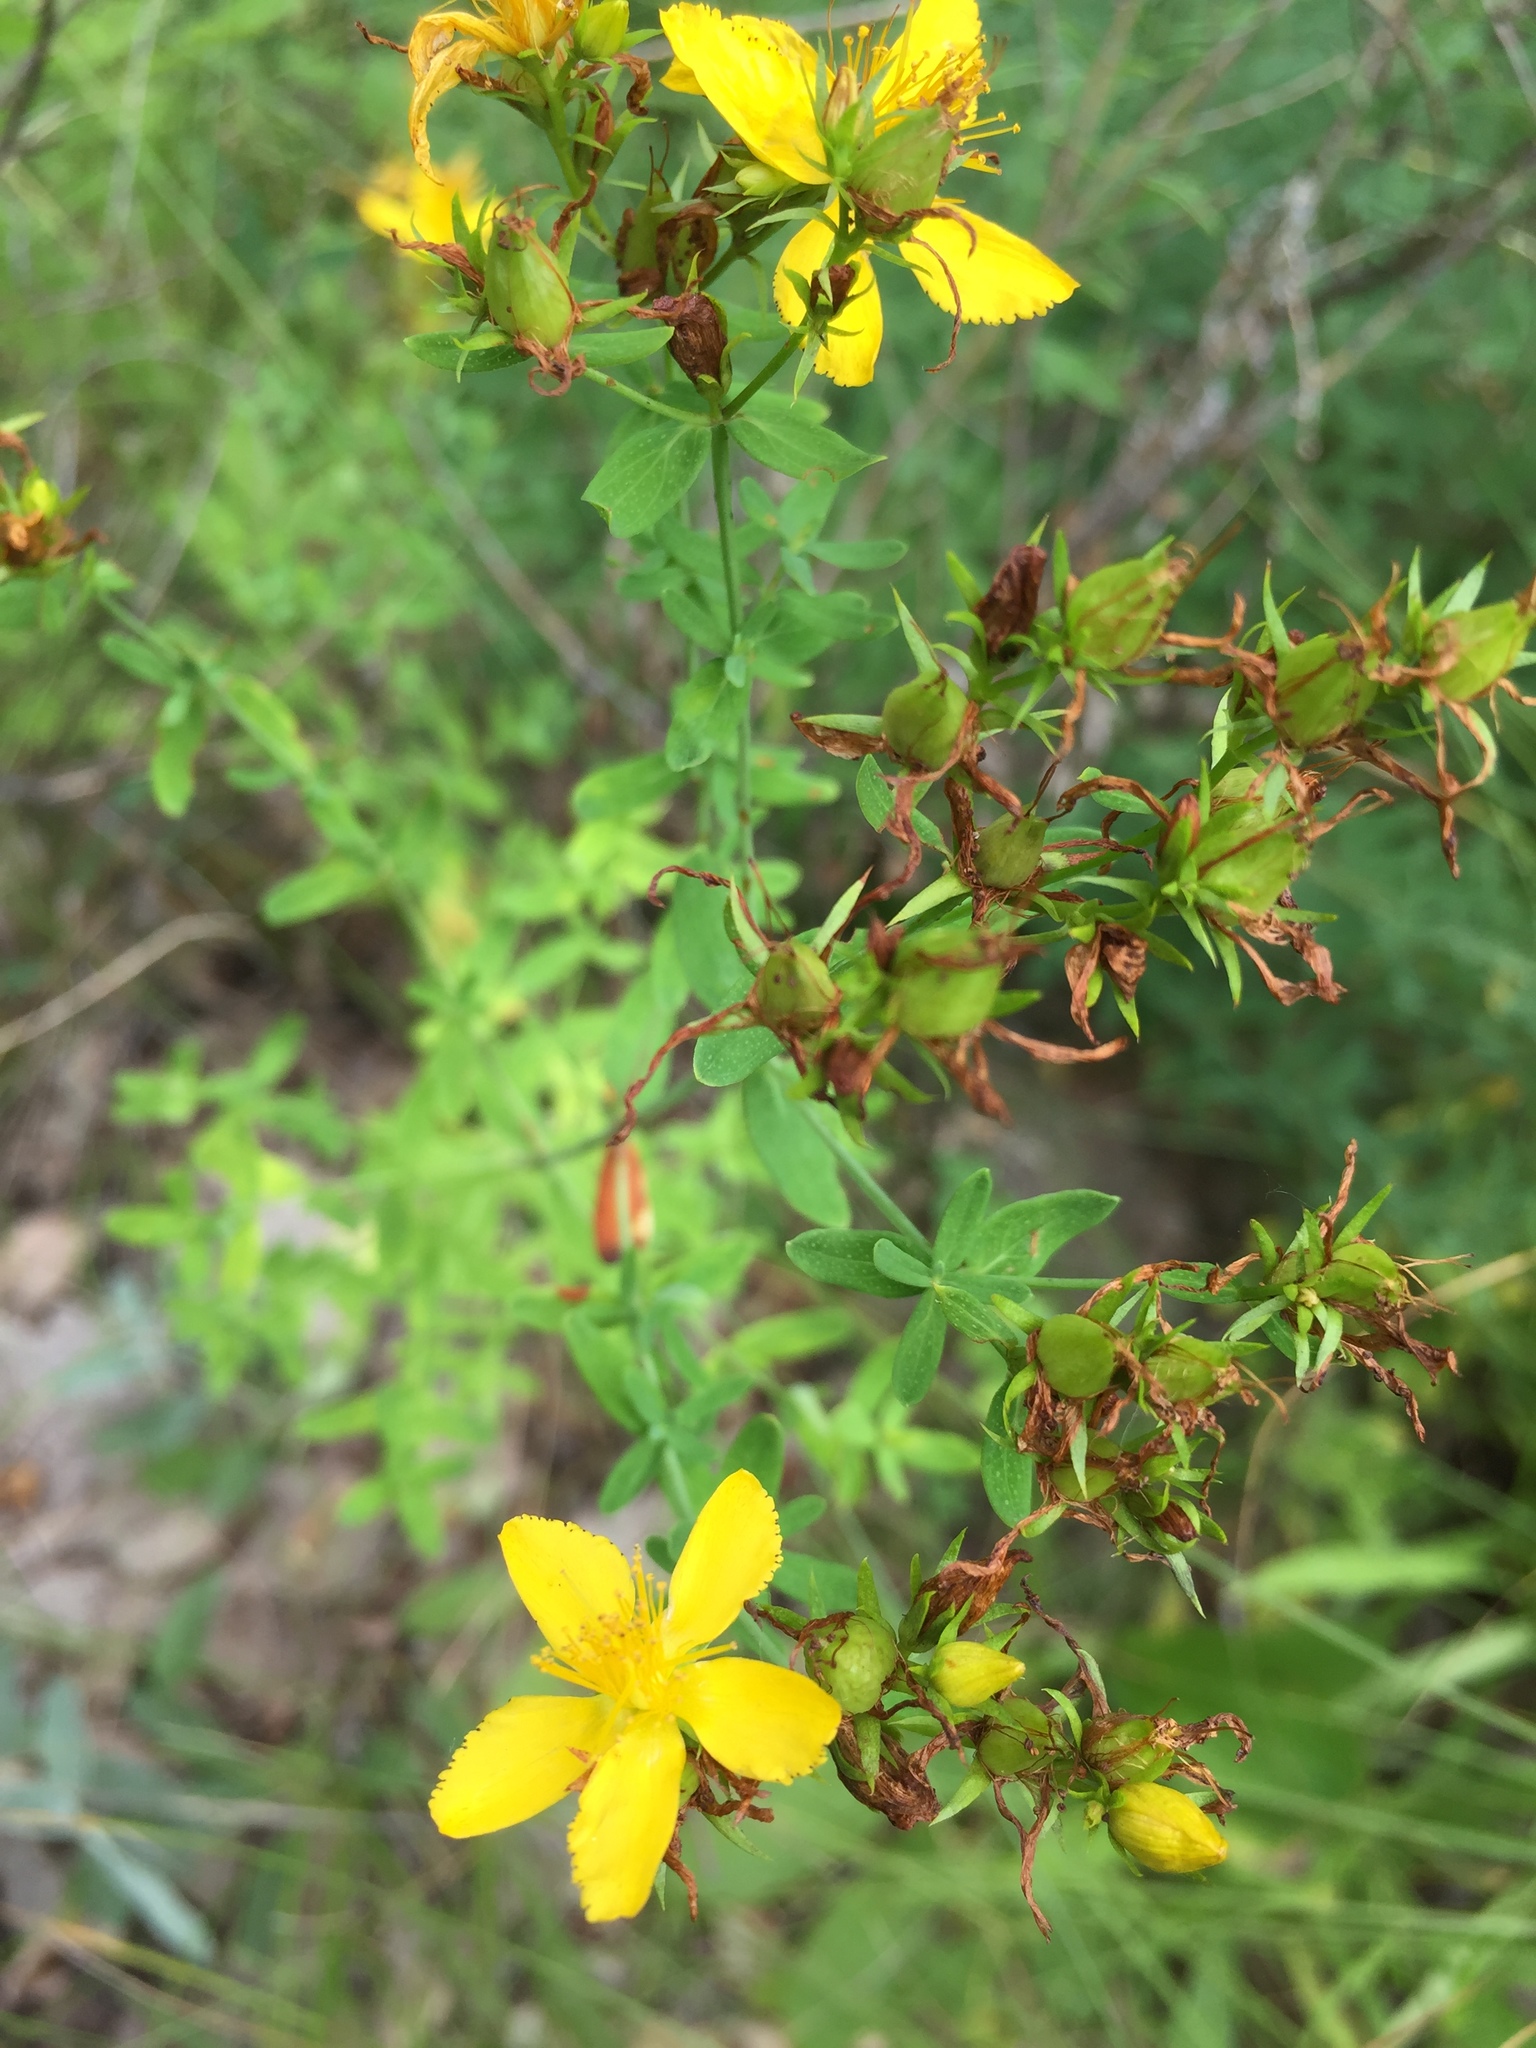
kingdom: Plantae
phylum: Tracheophyta
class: Magnoliopsida
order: Malpighiales
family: Hypericaceae
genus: Hypericum
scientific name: Hypericum perforatum
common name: Common st. johnswort
